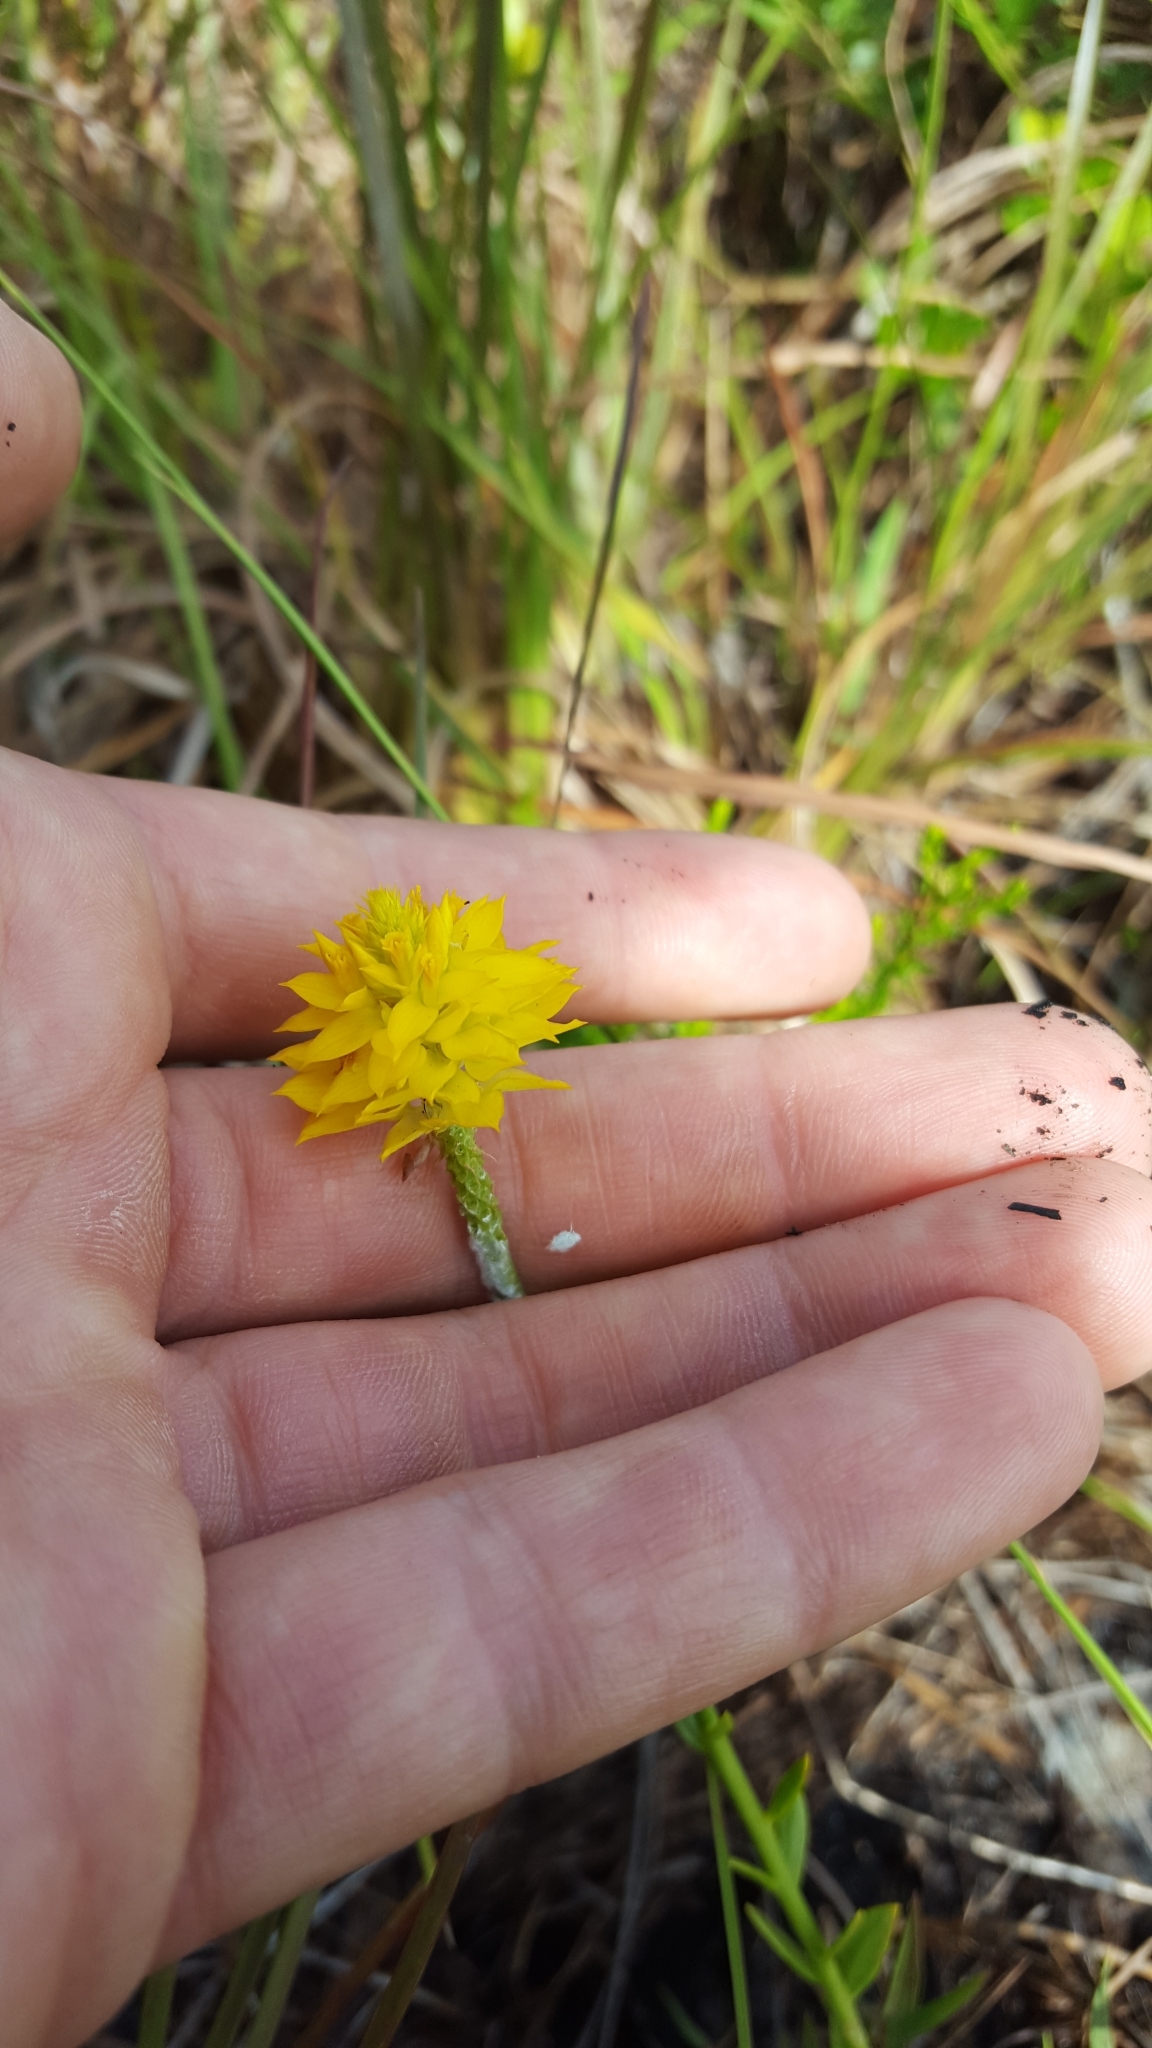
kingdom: Plantae
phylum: Tracheophyta
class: Magnoliopsida
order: Fabales
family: Polygalaceae
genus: Polygala
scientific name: Polygala rugelii
